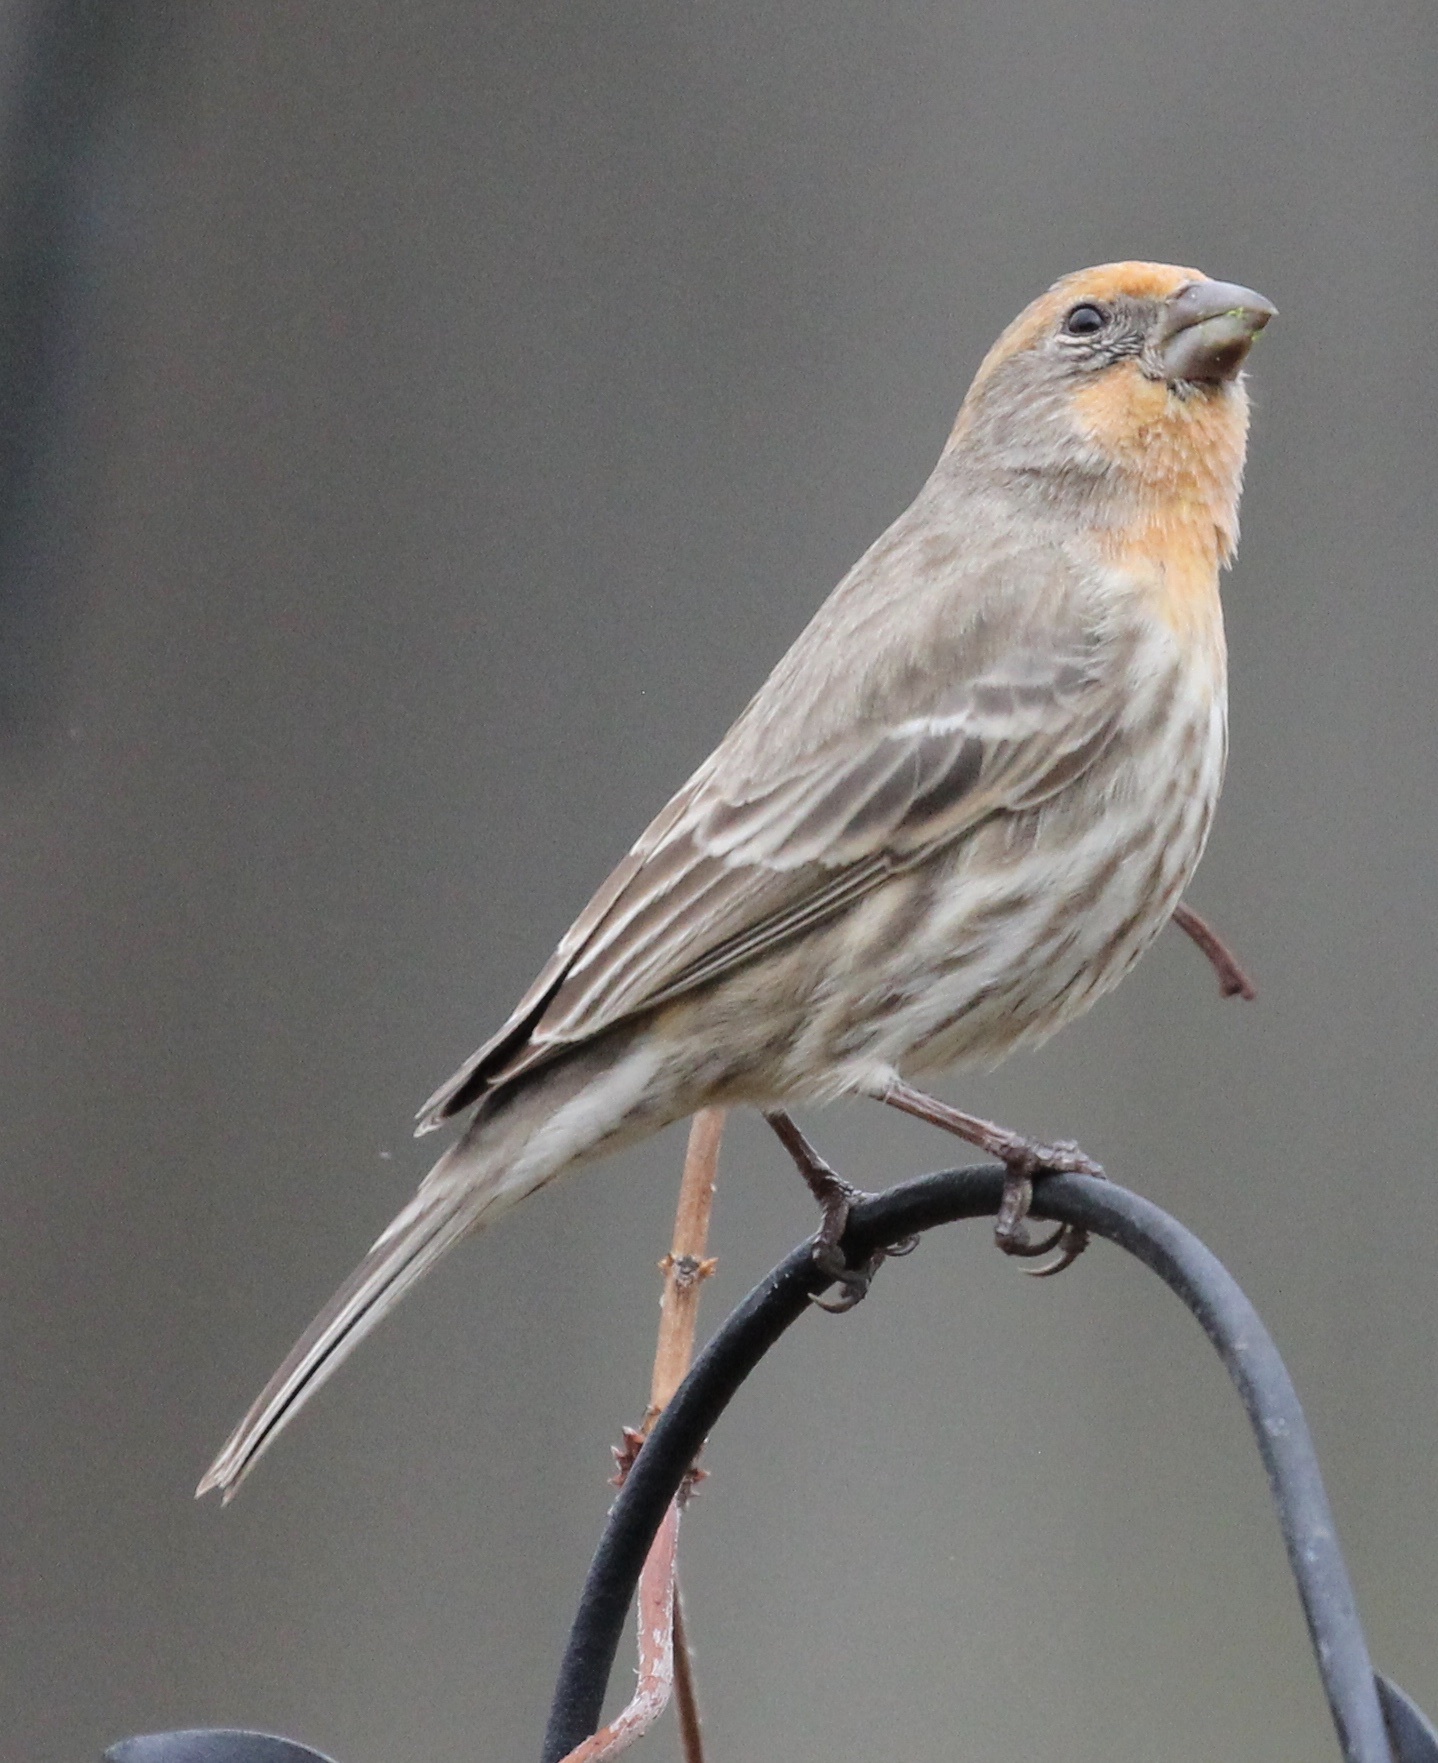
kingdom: Animalia
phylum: Chordata
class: Aves
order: Passeriformes
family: Fringillidae
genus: Haemorhous
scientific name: Haemorhous mexicanus
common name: House finch
